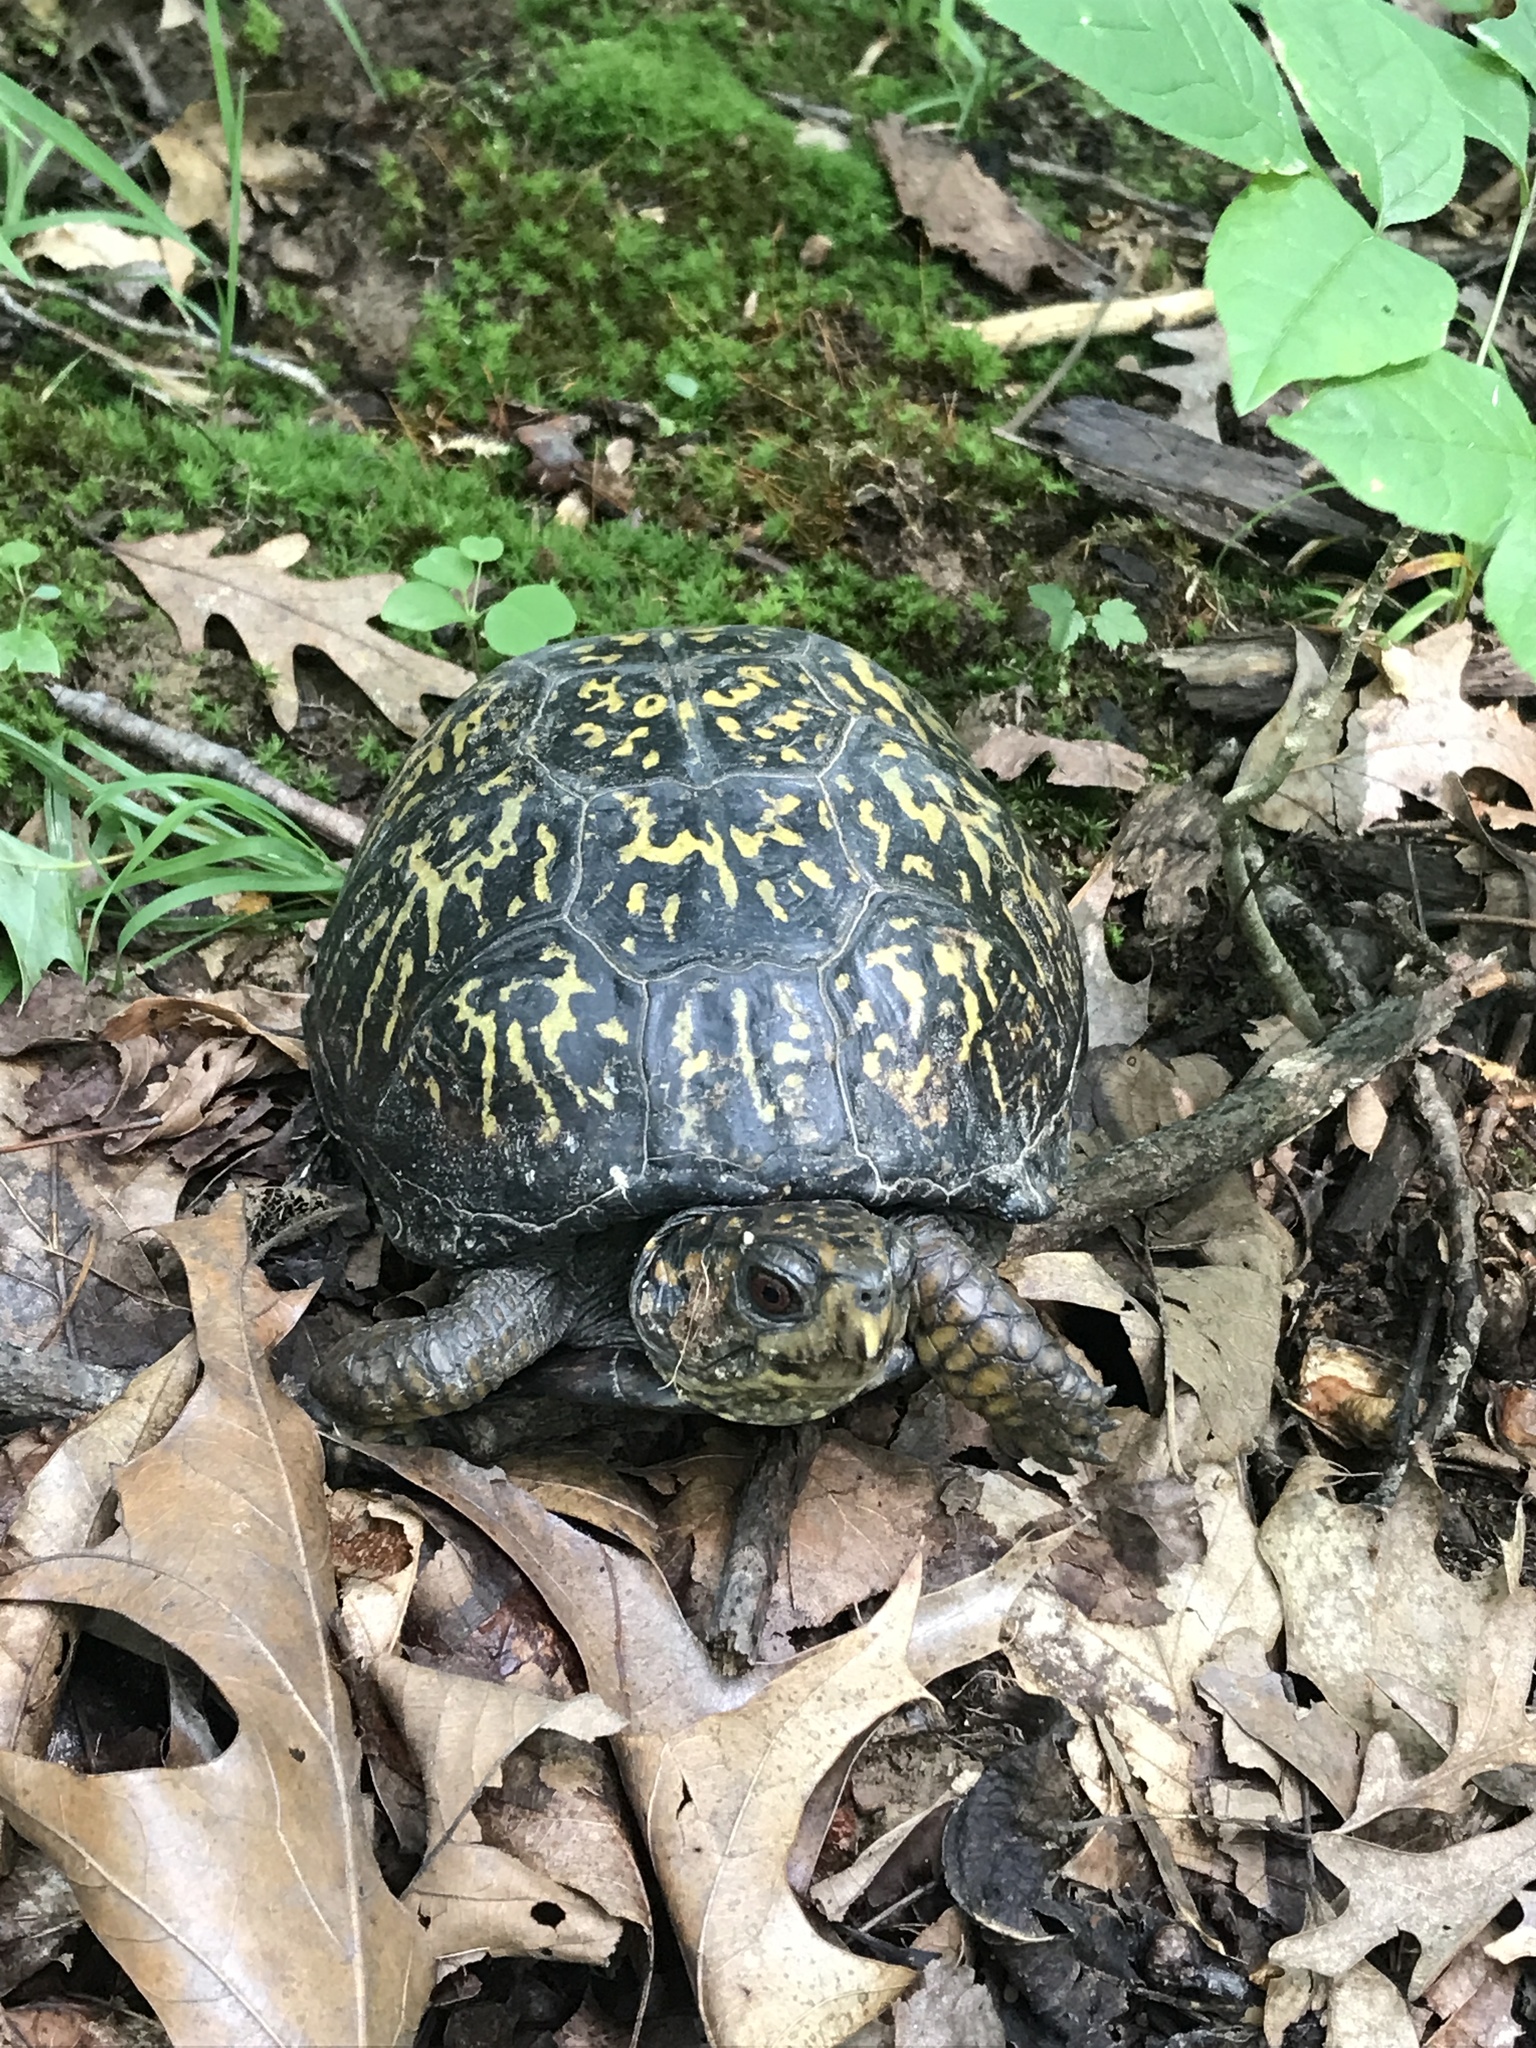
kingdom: Animalia
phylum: Chordata
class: Testudines
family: Emydidae
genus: Terrapene
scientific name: Terrapene carolina
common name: Common box turtle
